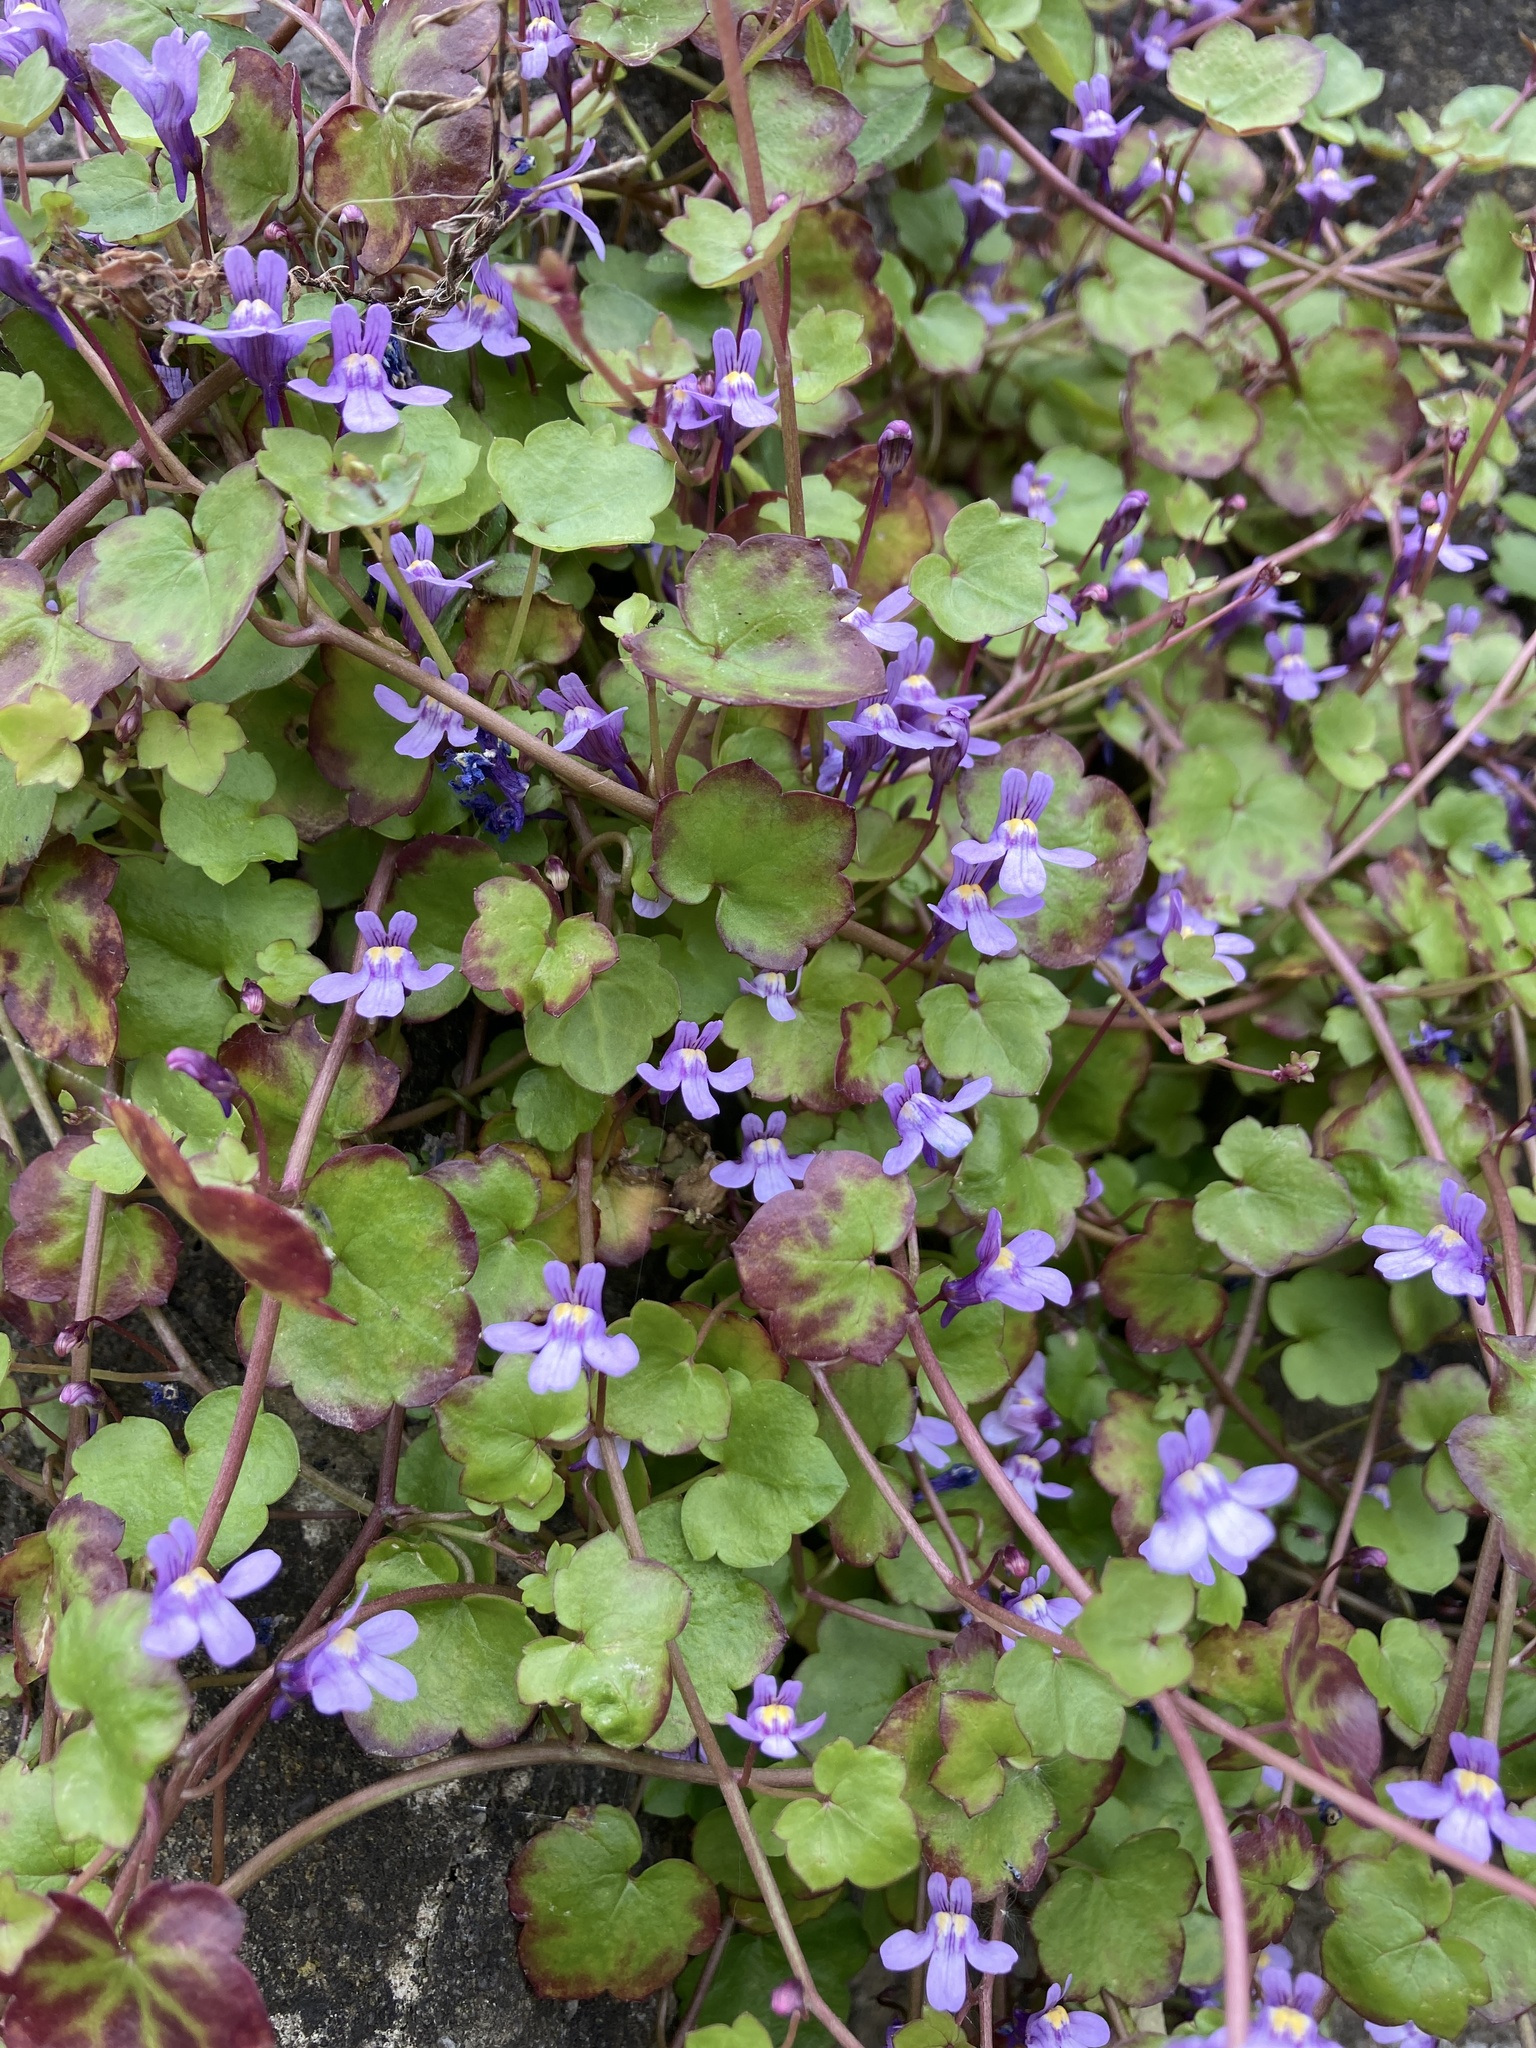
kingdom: Plantae
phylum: Tracheophyta
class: Magnoliopsida
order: Lamiales
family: Plantaginaceae
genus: Cymbalaria
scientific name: Cymbalaria muralis
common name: Ivy-leaved toadflax
